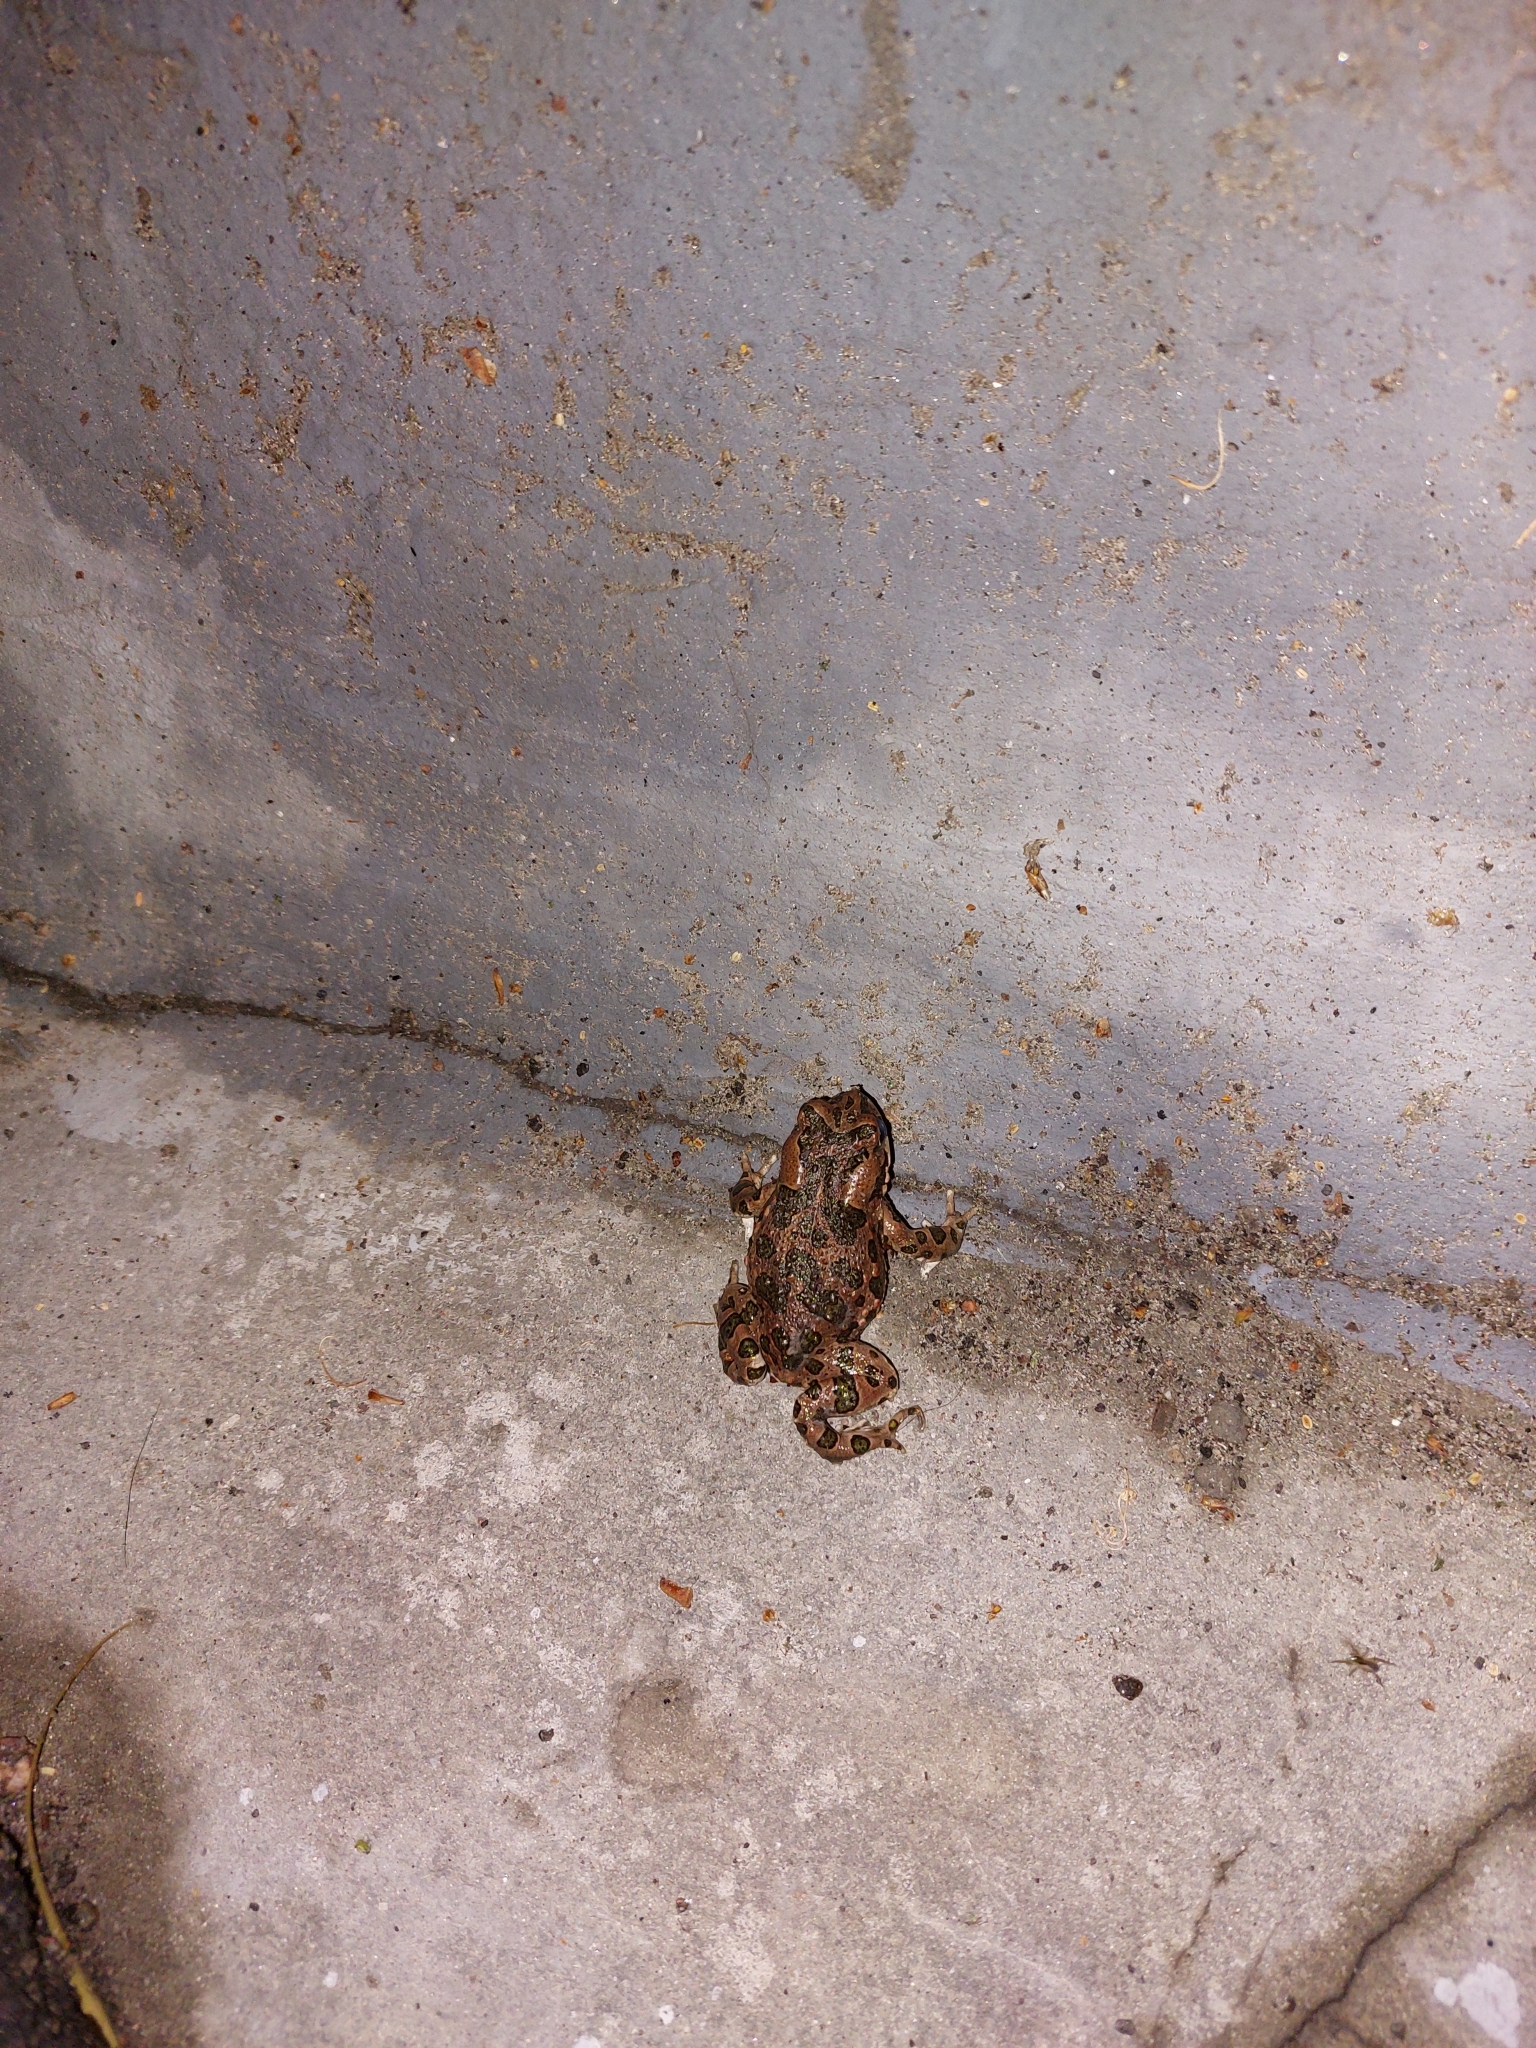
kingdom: Animalia
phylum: Chordata
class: Amphibia
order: Anura
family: Bufonidae
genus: Bufotes
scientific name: Bufotes viridis
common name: European green toad
